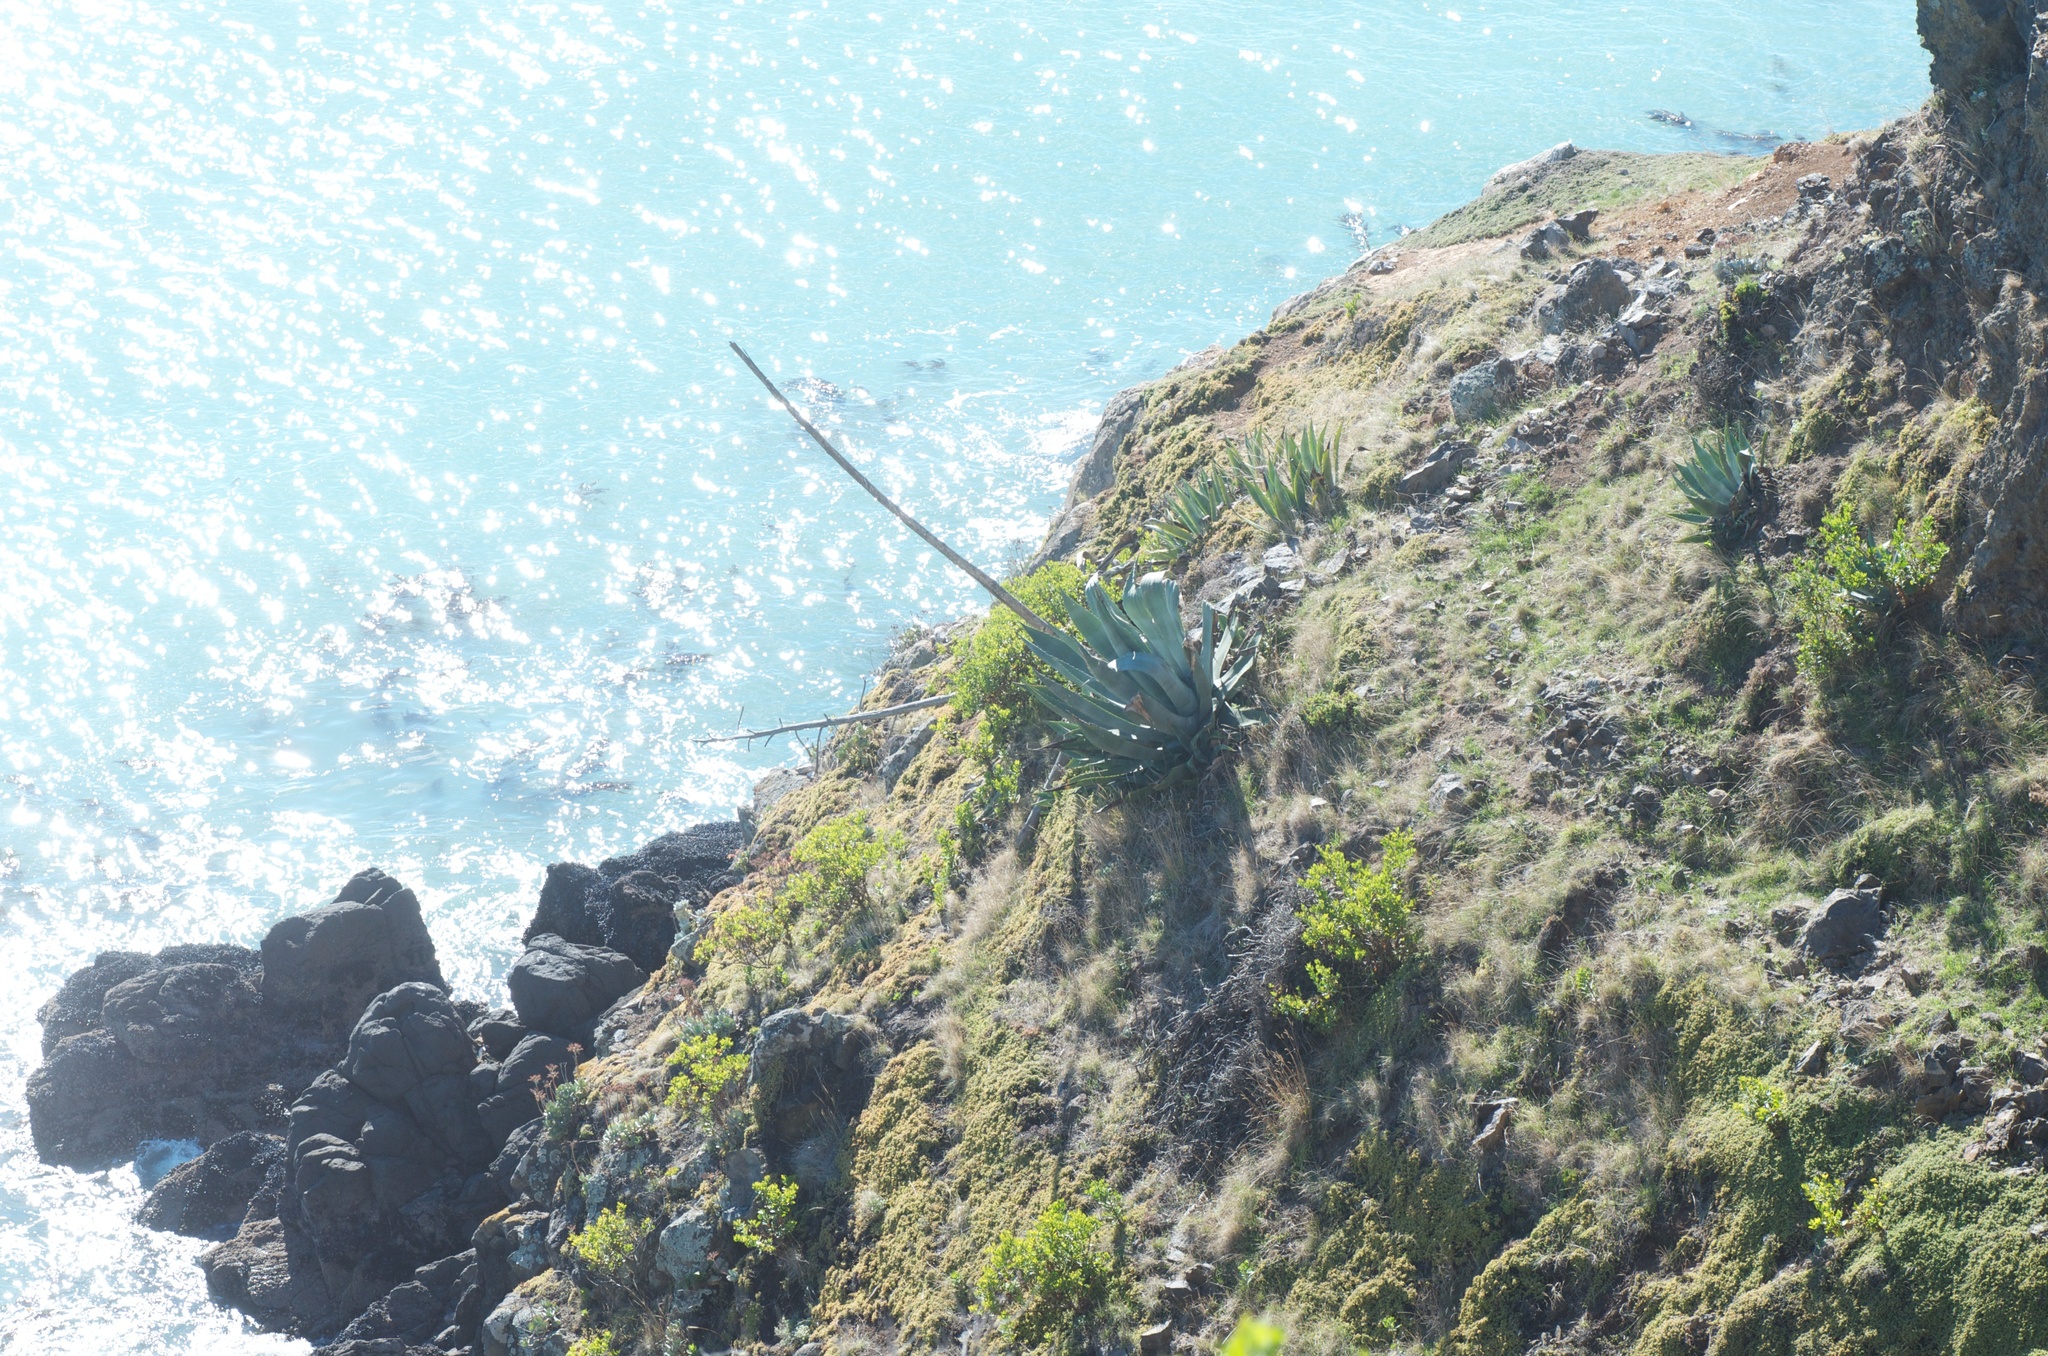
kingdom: Plantae
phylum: Tracheophyta
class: Liliopsida
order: Asparagales
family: Asparagaceae
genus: Agave
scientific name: Agave americana
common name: Centuryplant
